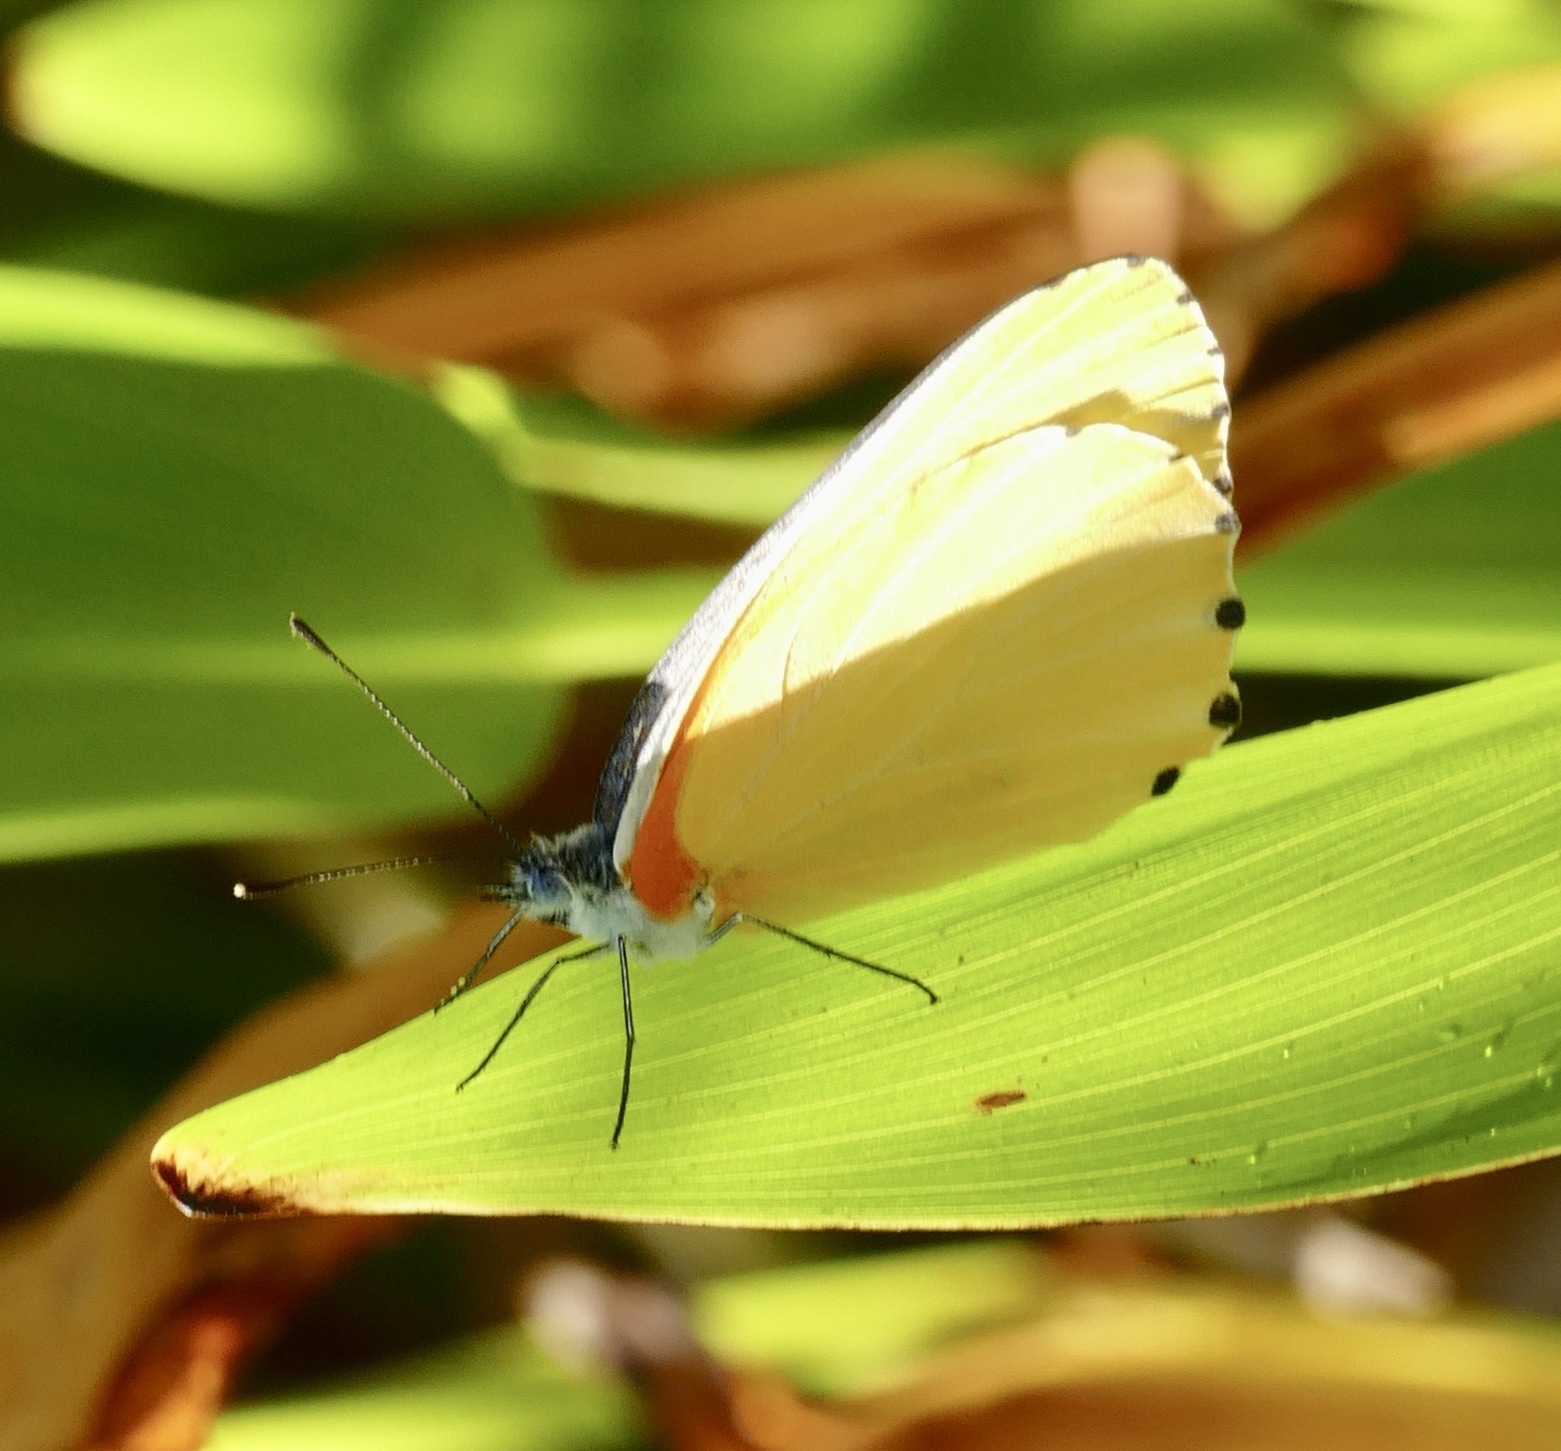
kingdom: Animalia
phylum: Arthropoda
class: Insecta
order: Lepidoptera
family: Pieridae
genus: Mylothris
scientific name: Mylothris agathina
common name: Eastern dotted border
